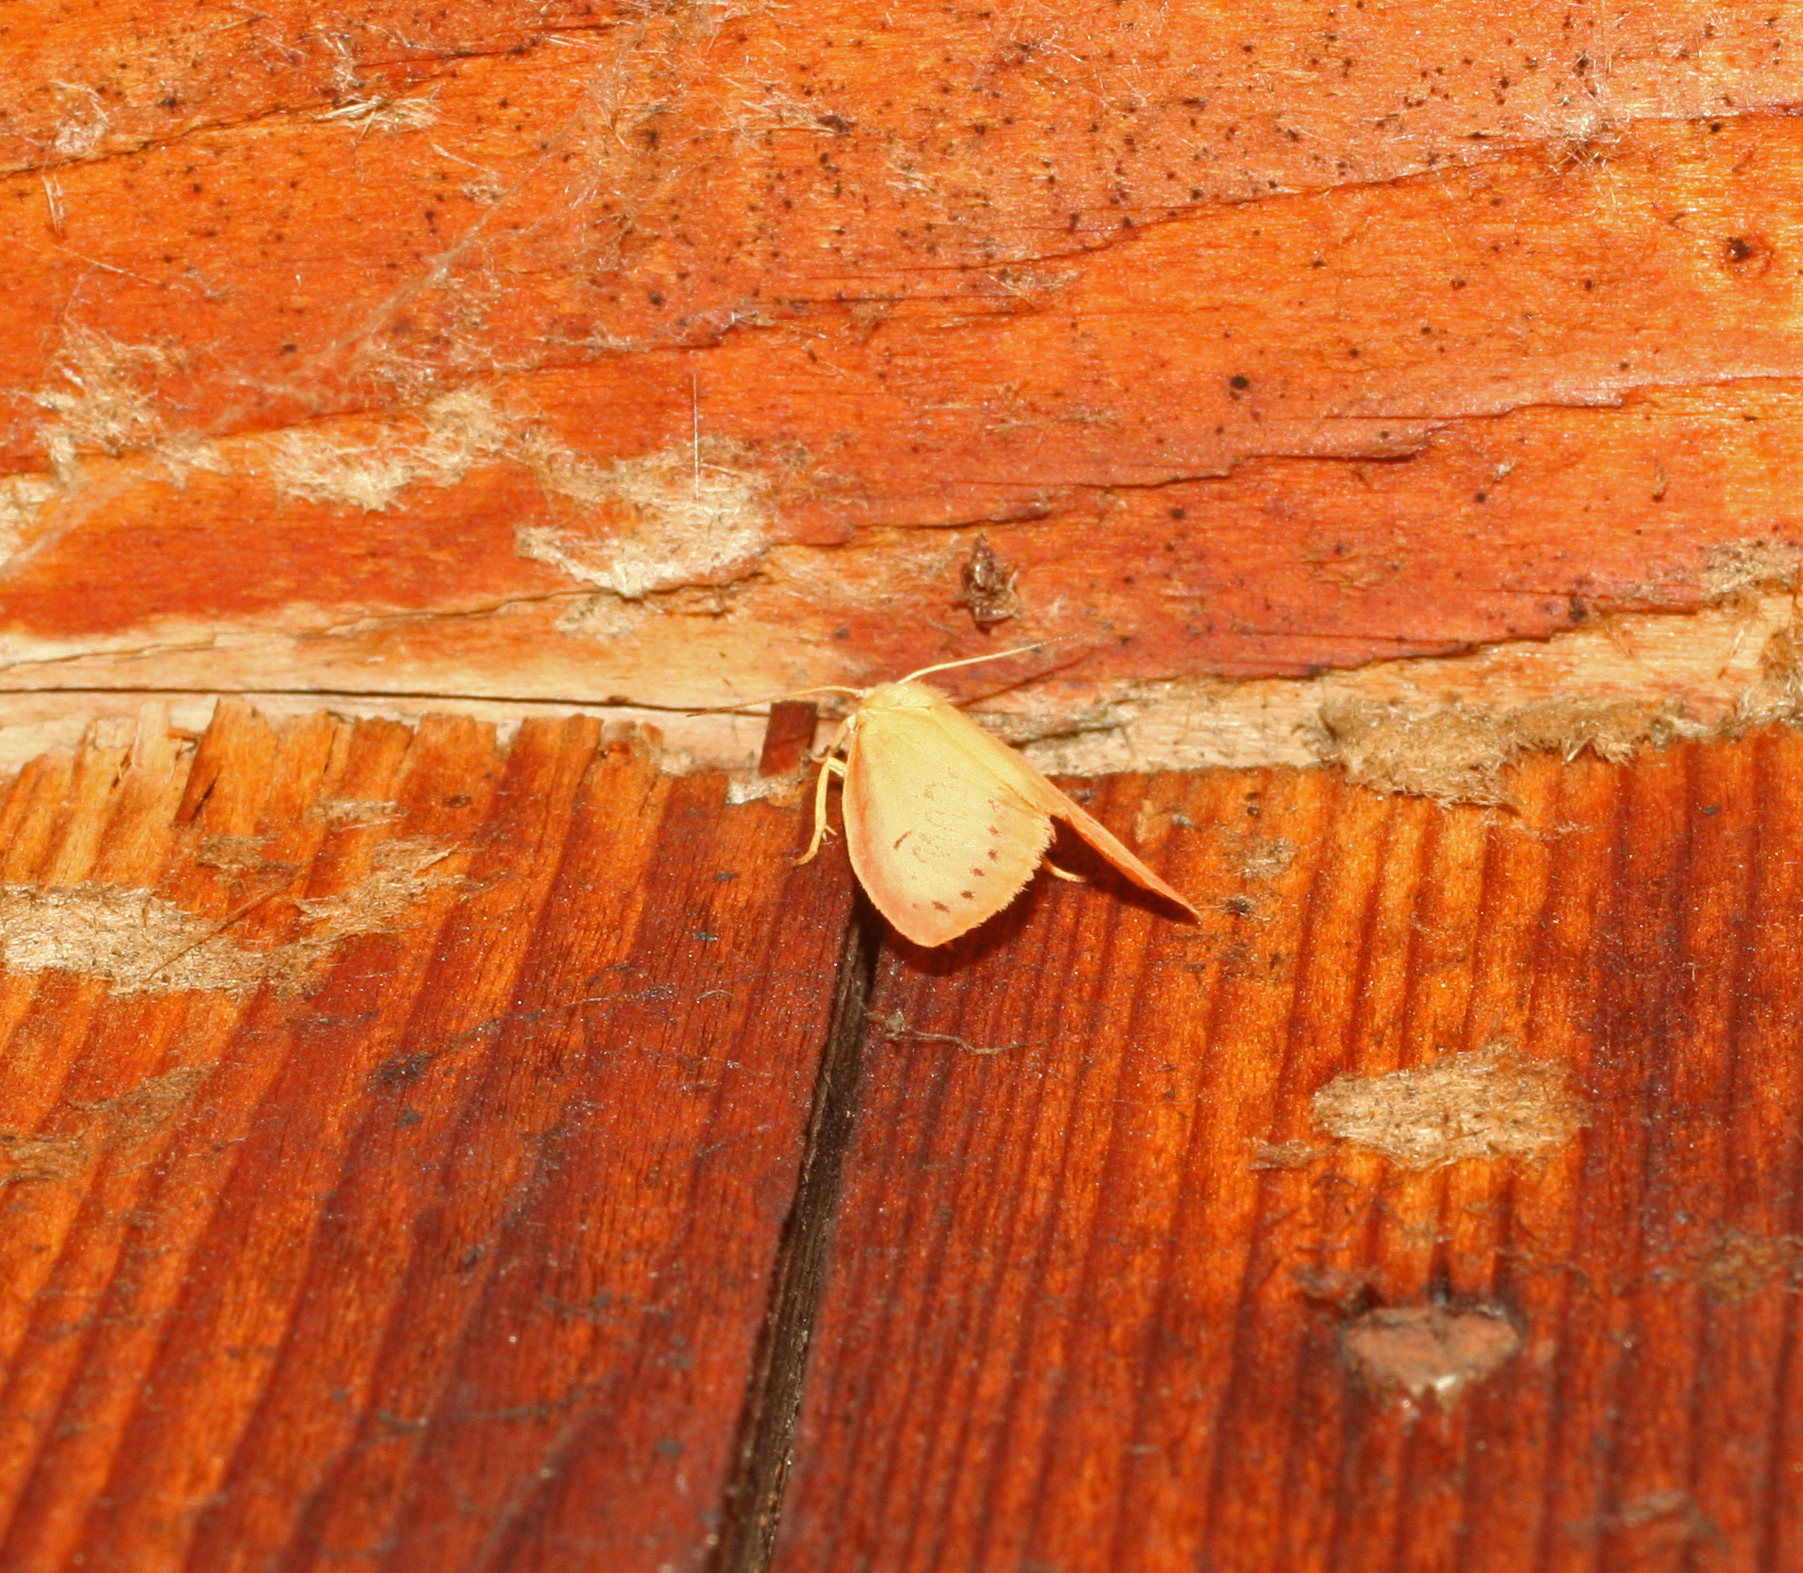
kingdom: Animalia
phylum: Arthropoda
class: Insecta
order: Lepidoptera
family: Erebidae
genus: Miltochrista
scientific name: Miltochrista miniata
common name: Rosy footman
